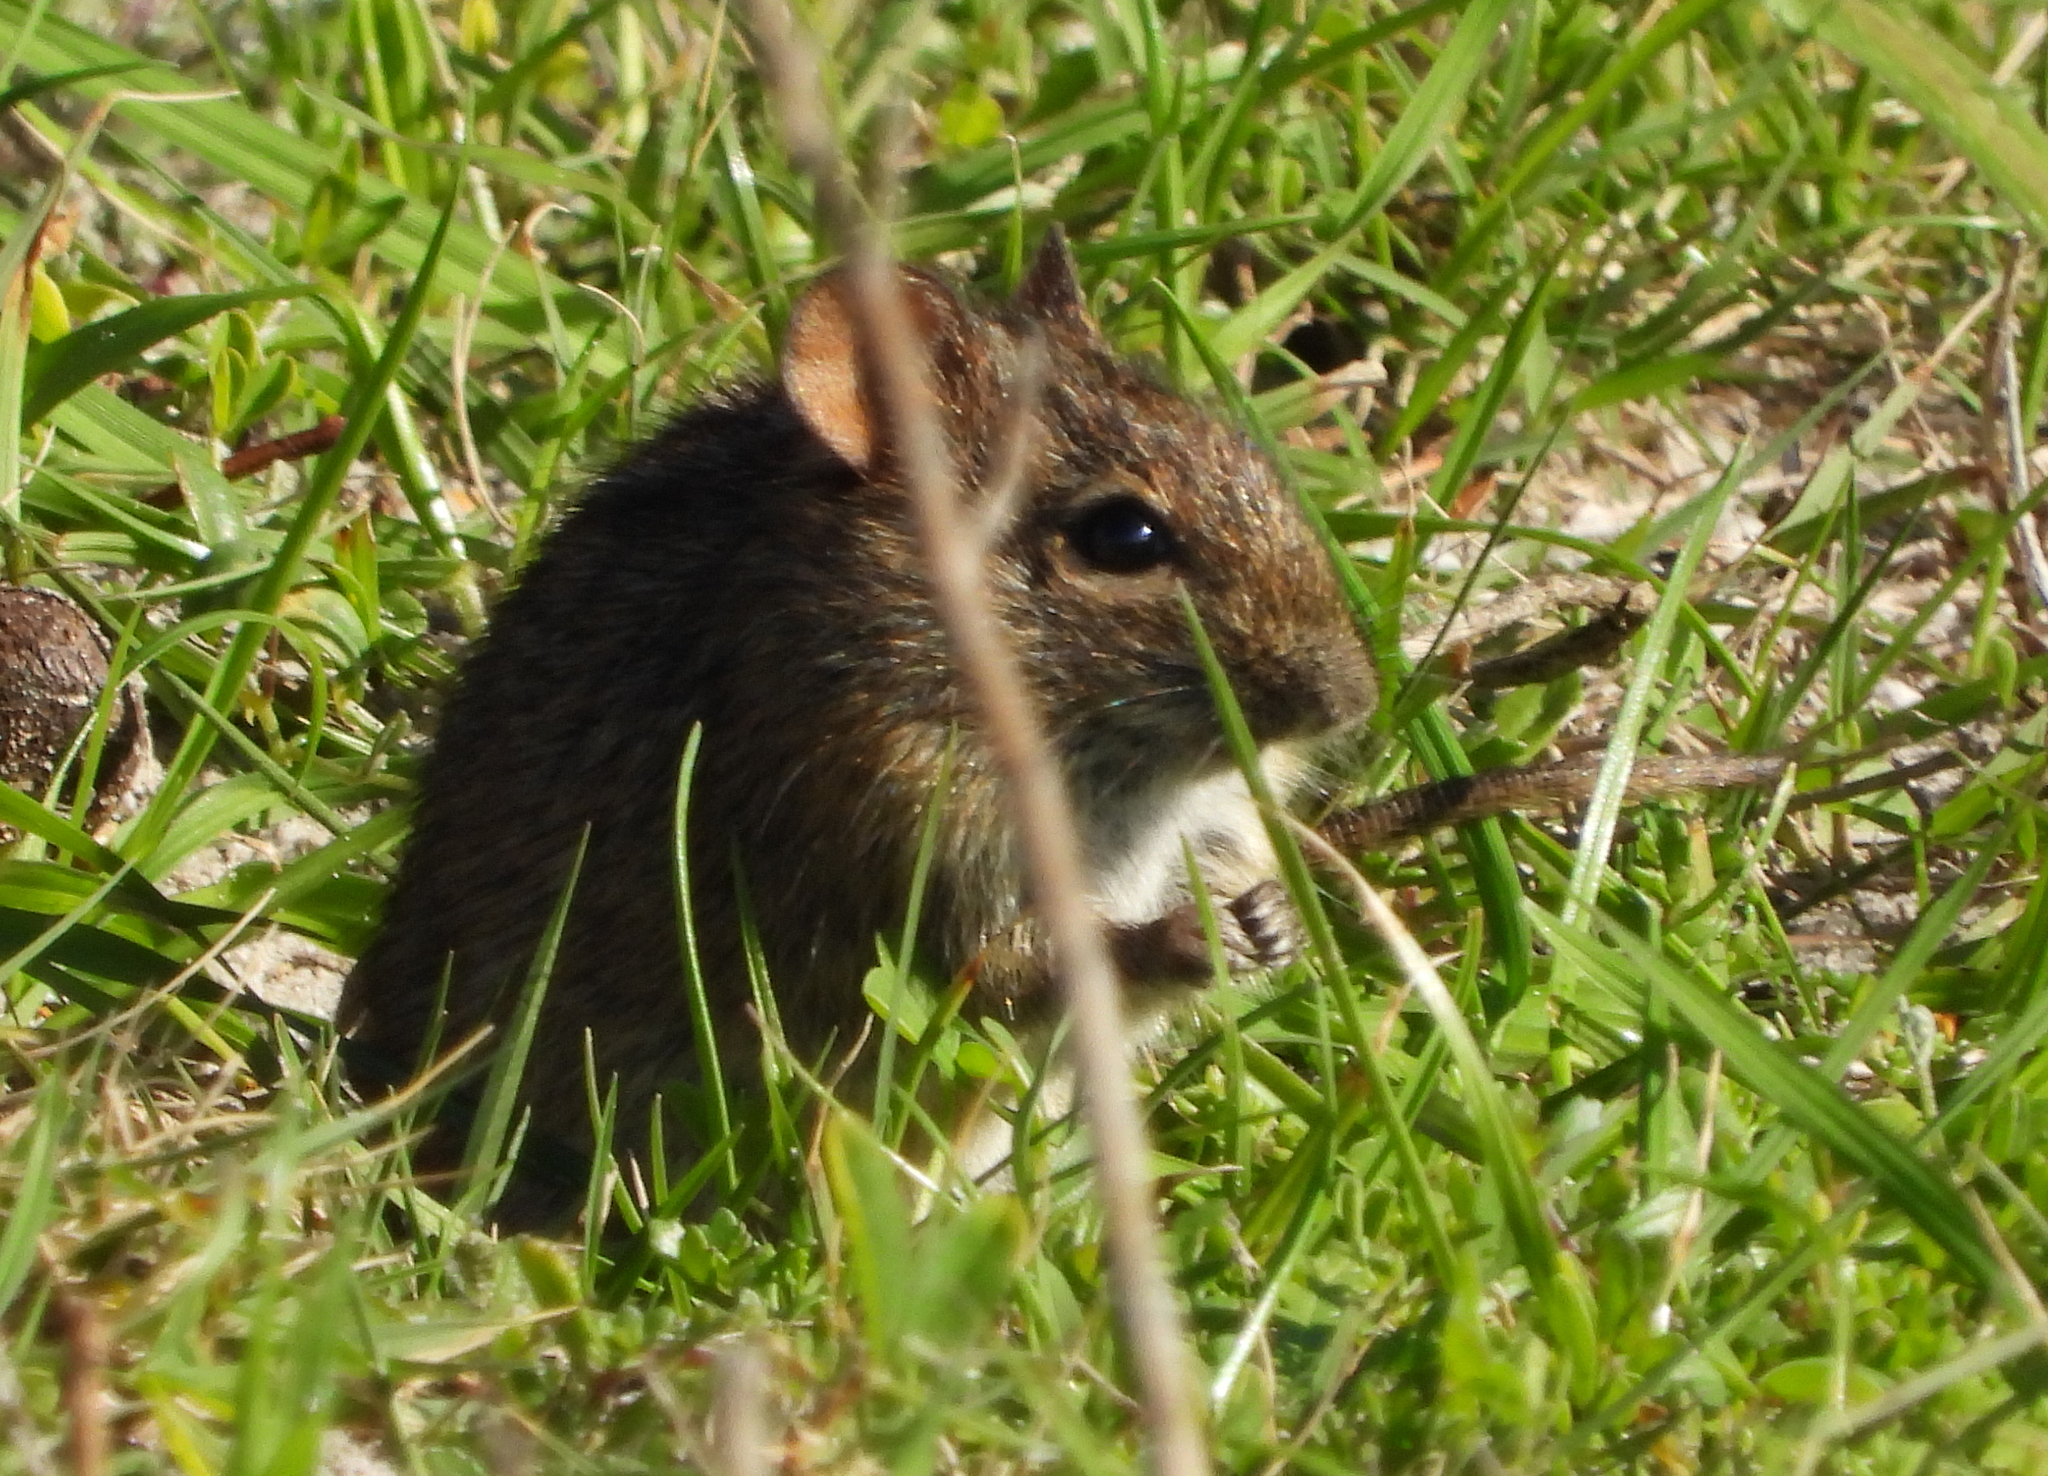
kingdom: Animalia
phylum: Chordata
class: Mammalia
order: Rodentia
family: Muridae
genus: Rhabdomys
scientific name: Rhabdomys pumilio
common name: Xeric four-striped grass rat
